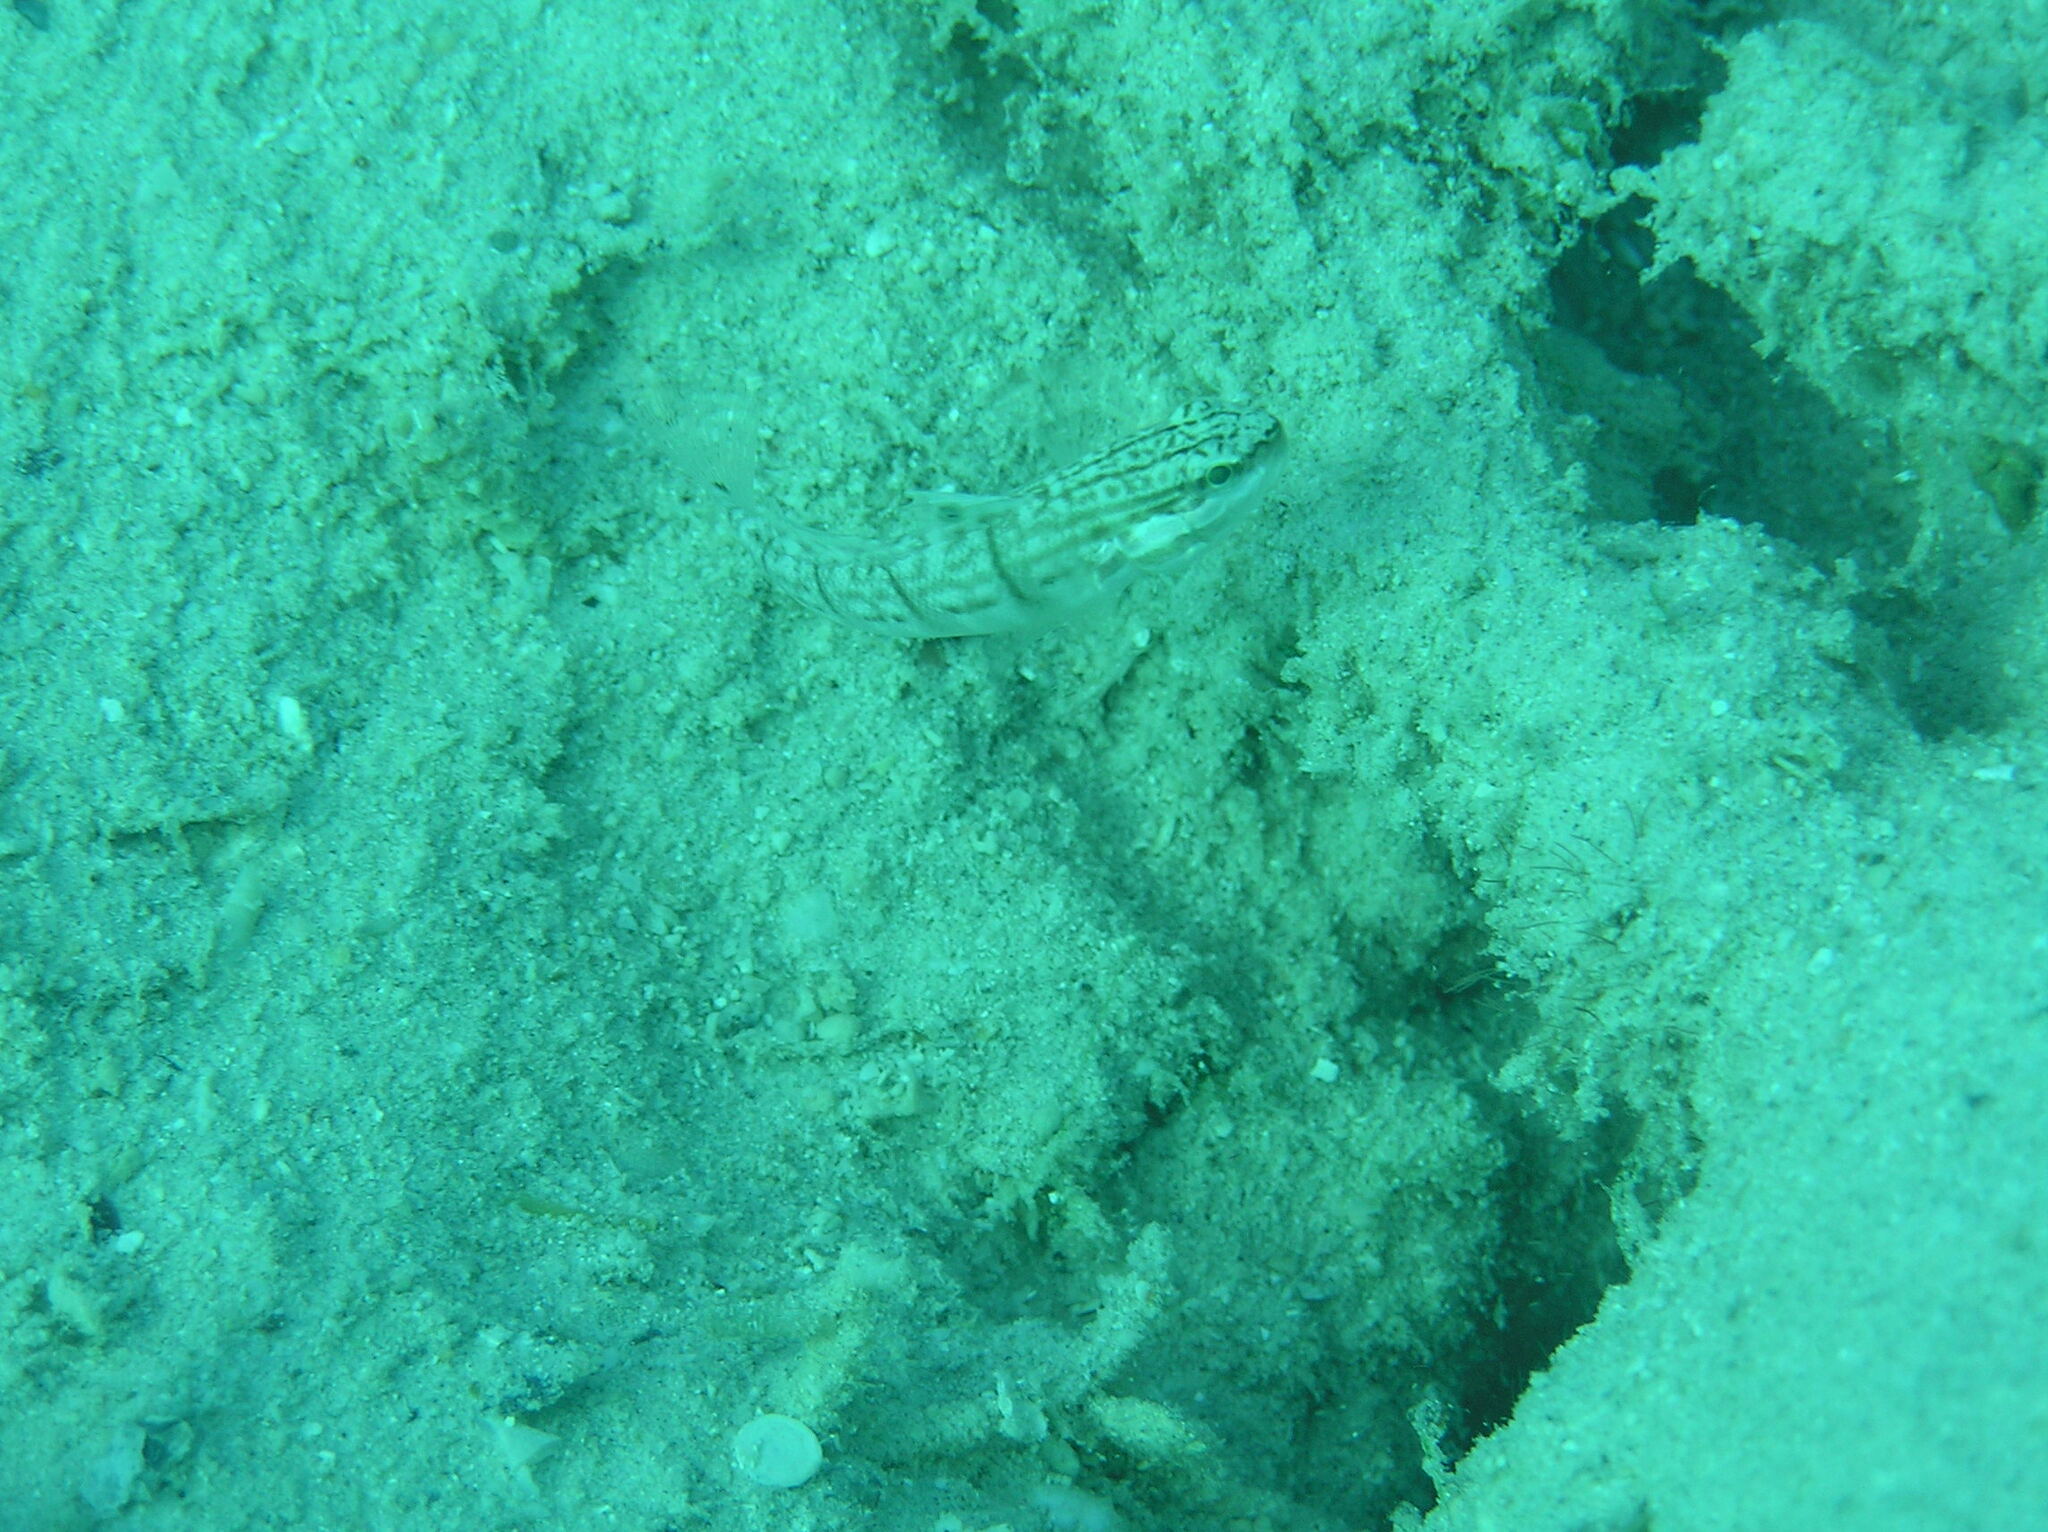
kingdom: Animalia
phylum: Chordata
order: Perciformes
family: Gobiidae
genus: Amblygobius
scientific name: Amblygobius phalaena
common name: Banded goby
